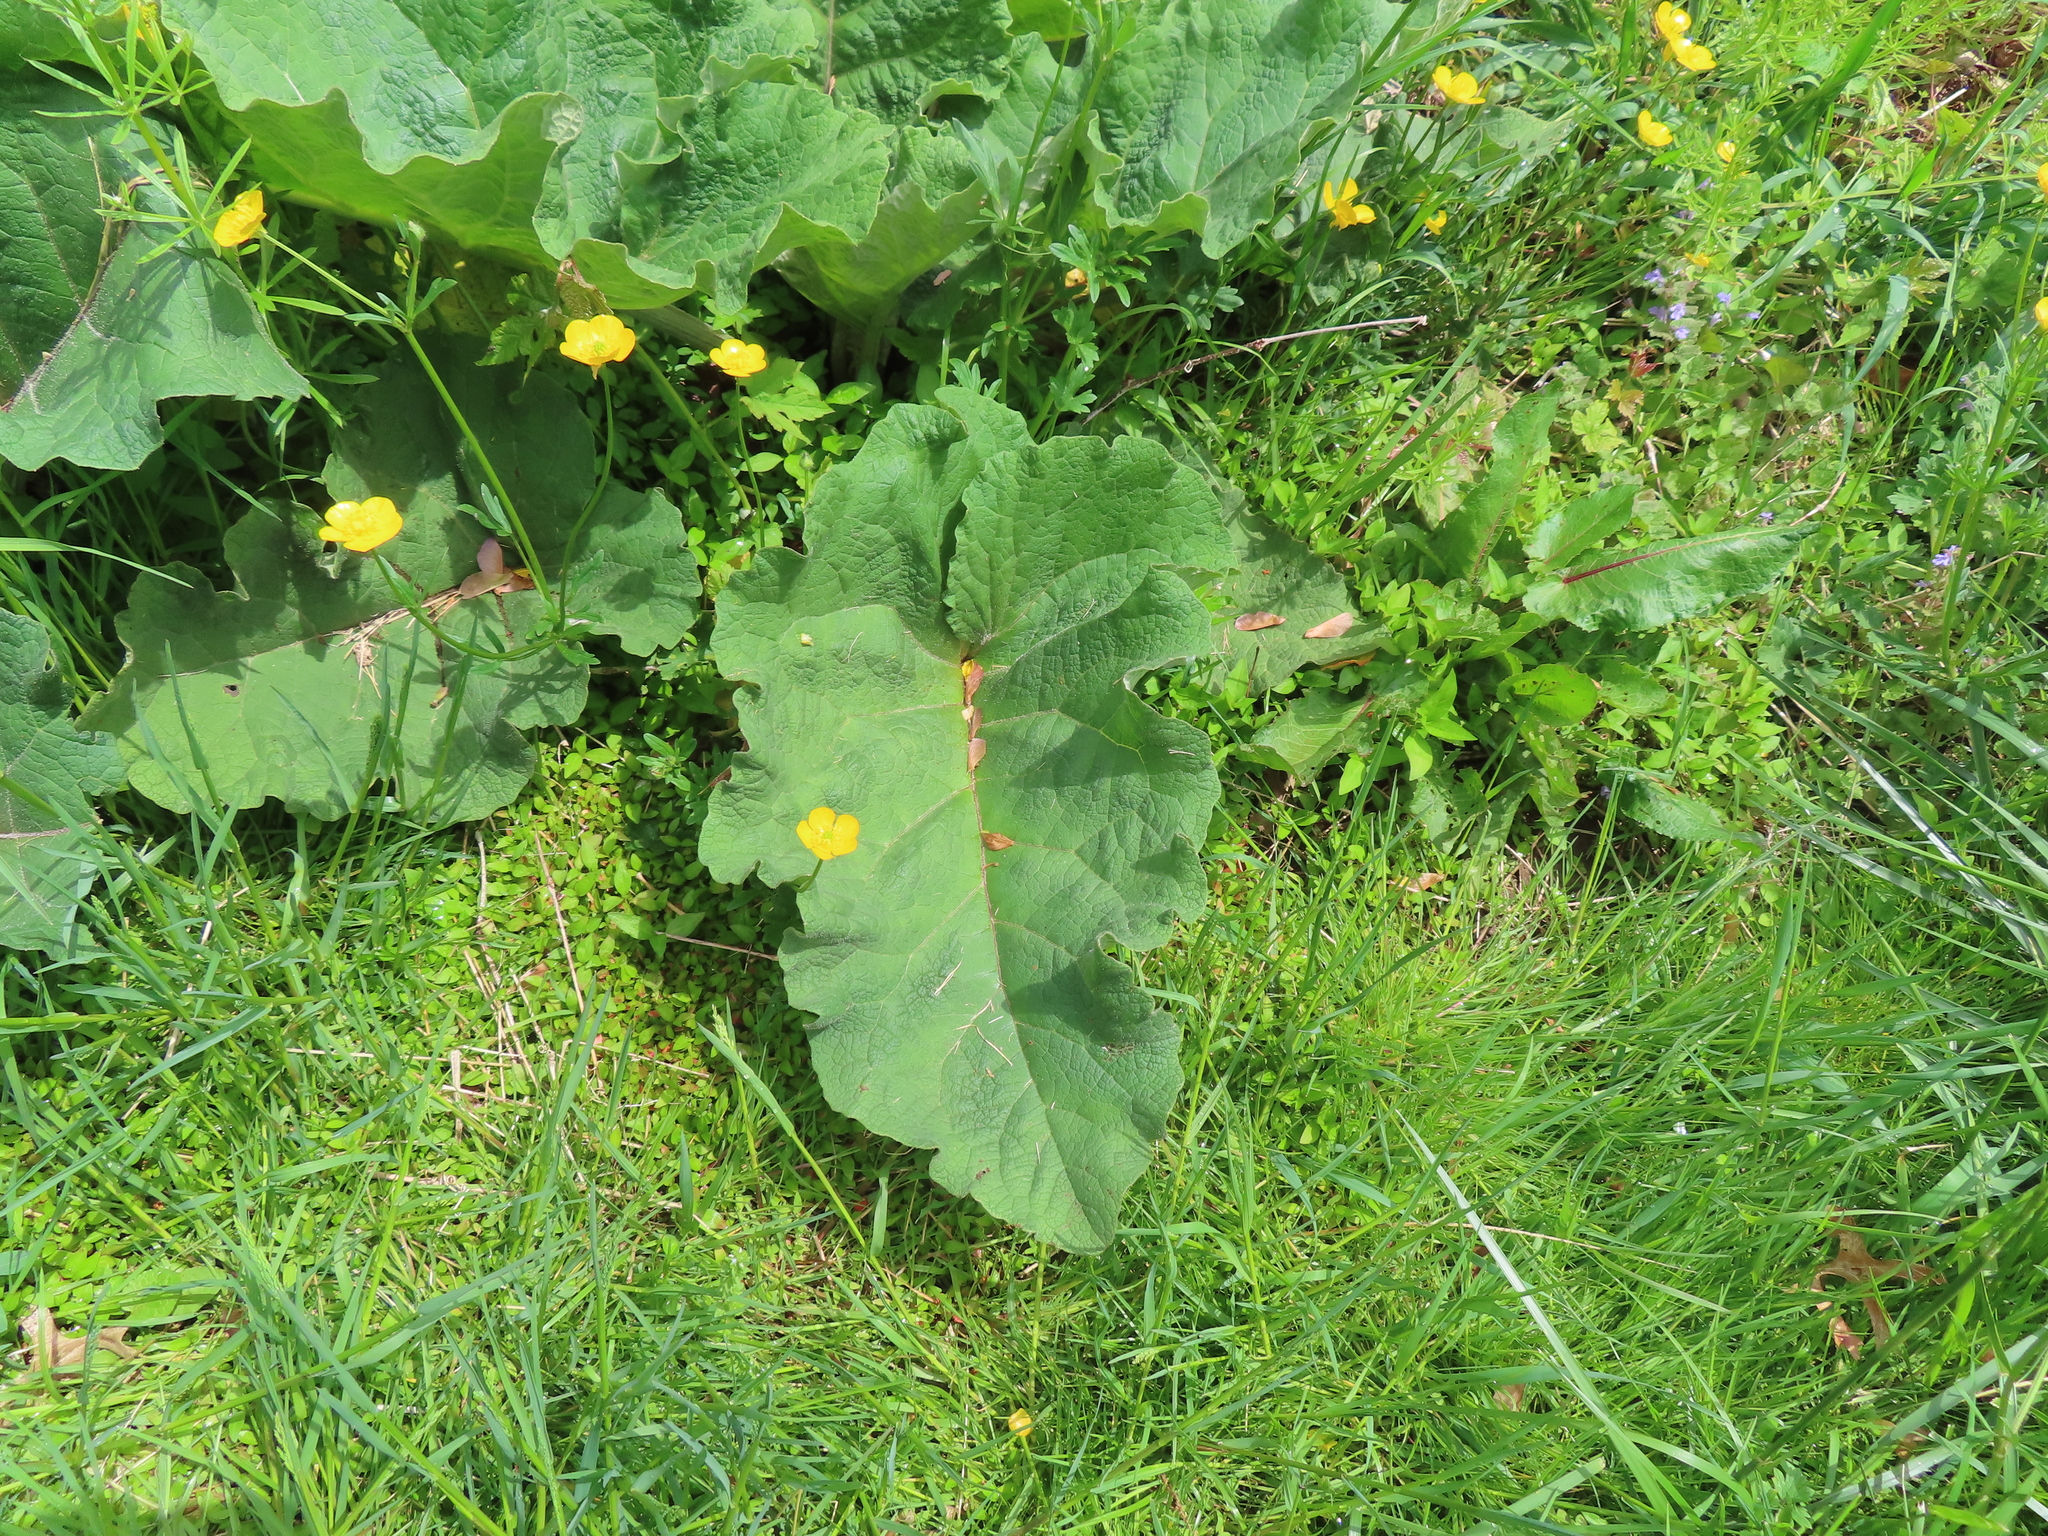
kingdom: Plantae
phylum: Tracheophyta
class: Magnoliopsida
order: Asterales
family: Asteraceae
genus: Arctium
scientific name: Arctium lappa
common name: Greater burdock
